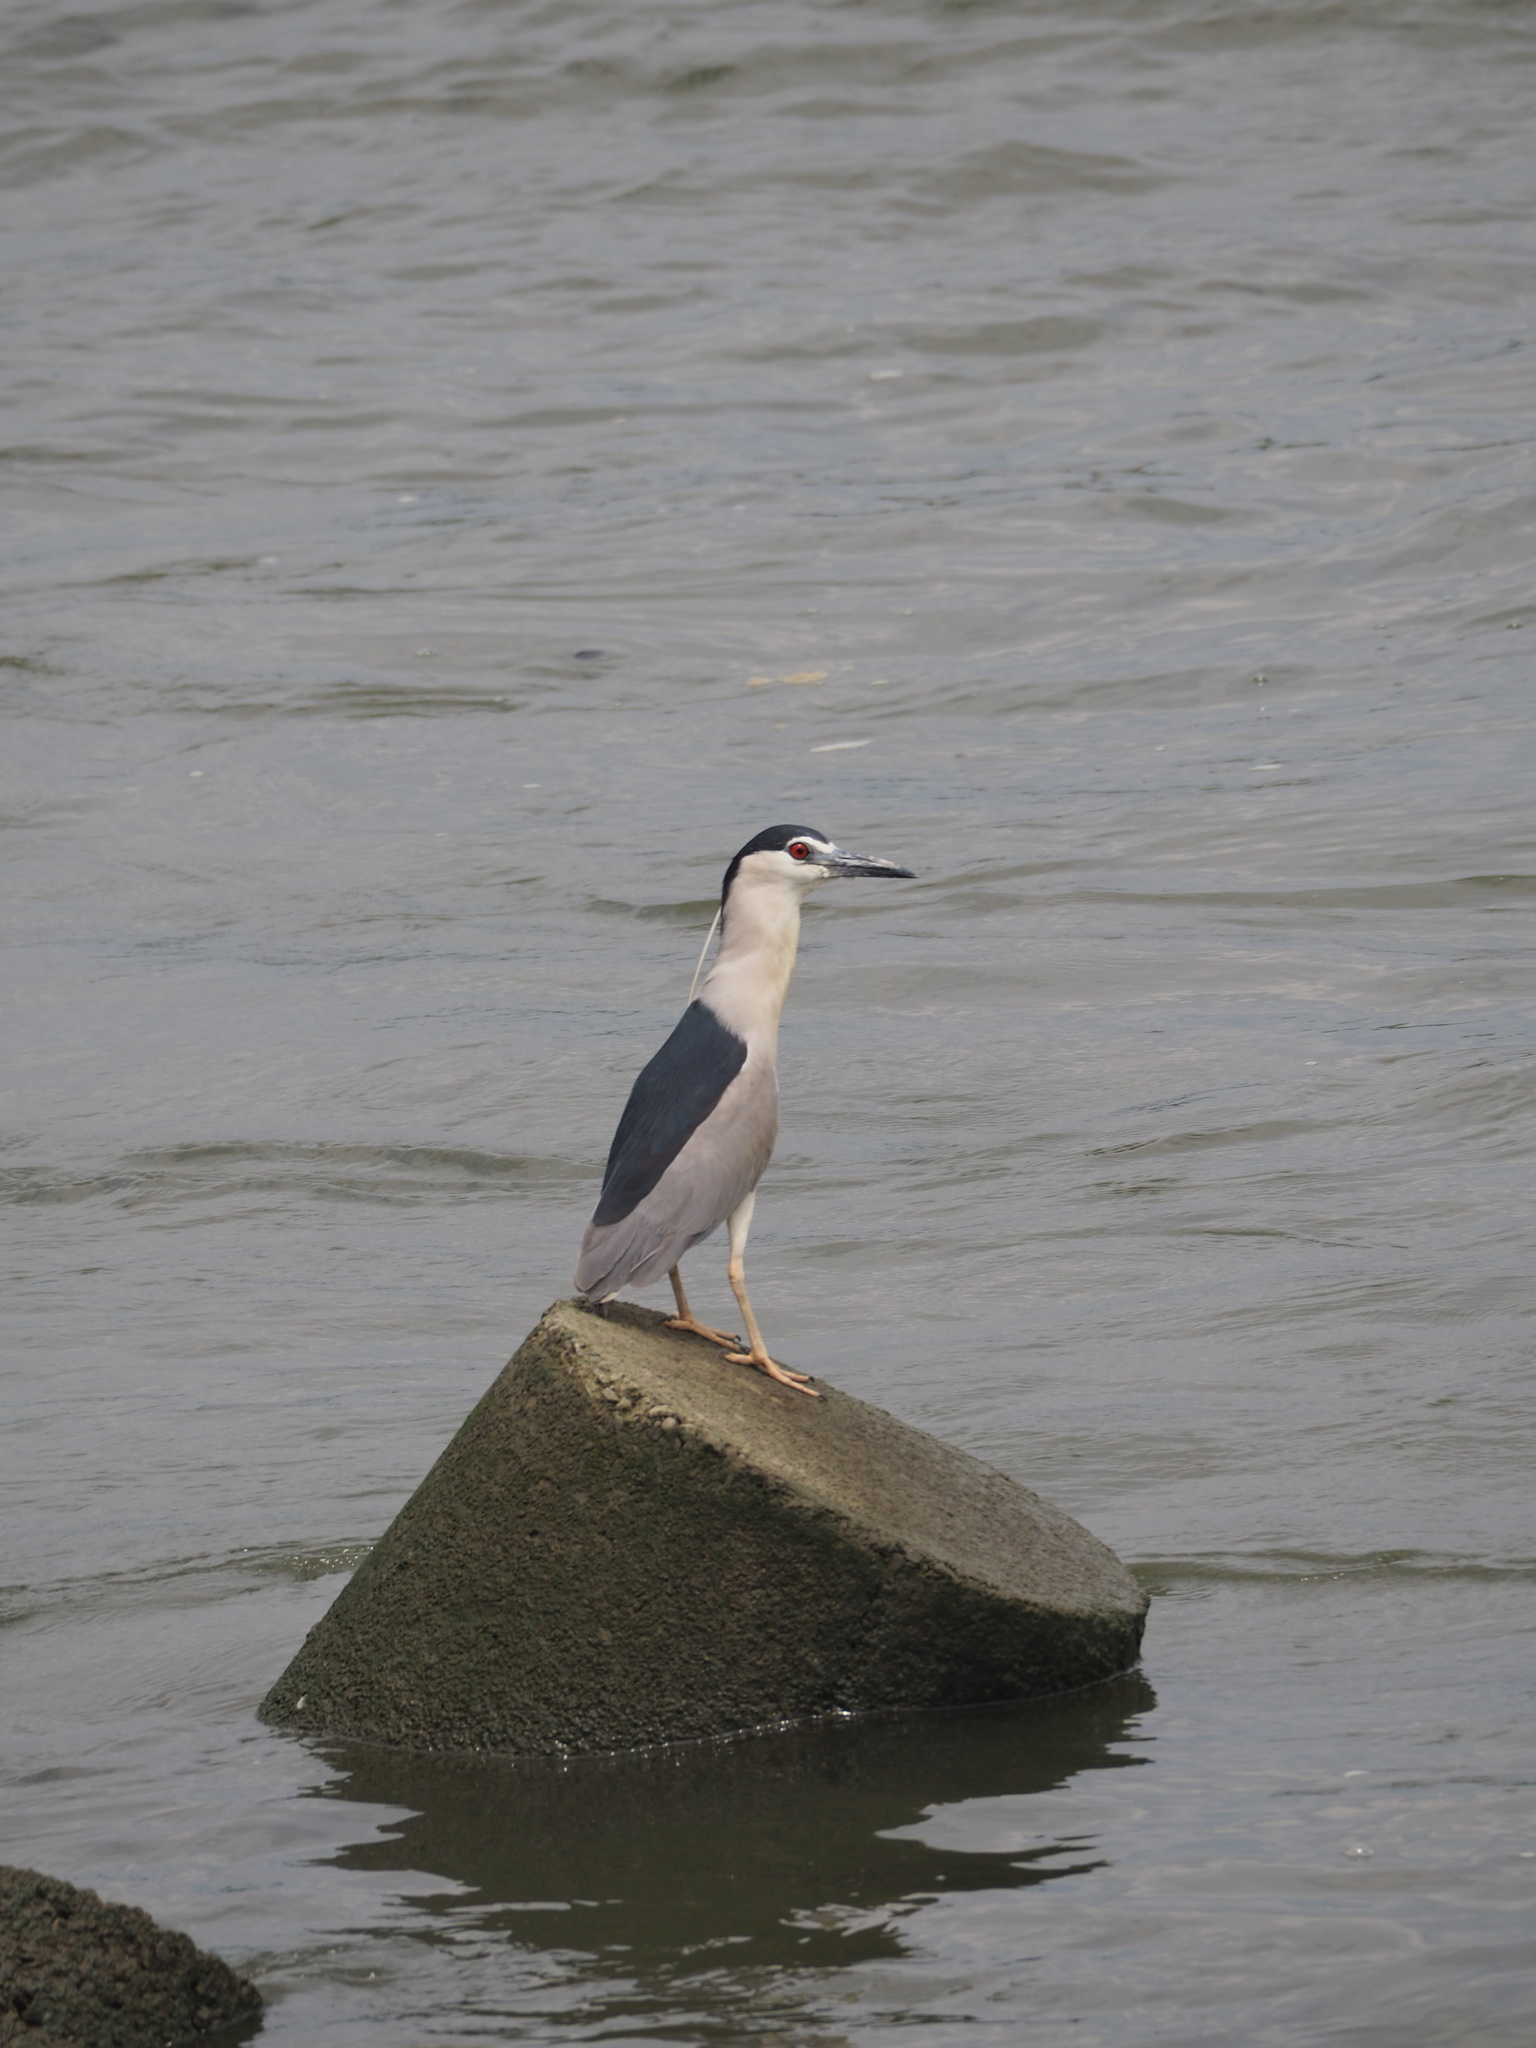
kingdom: Animalia
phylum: Chordata
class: Aves
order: Pelecaniformes
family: Ardeidae
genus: Nycticorax
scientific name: Nycticorax nycticorax
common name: Black-crowned night heron
